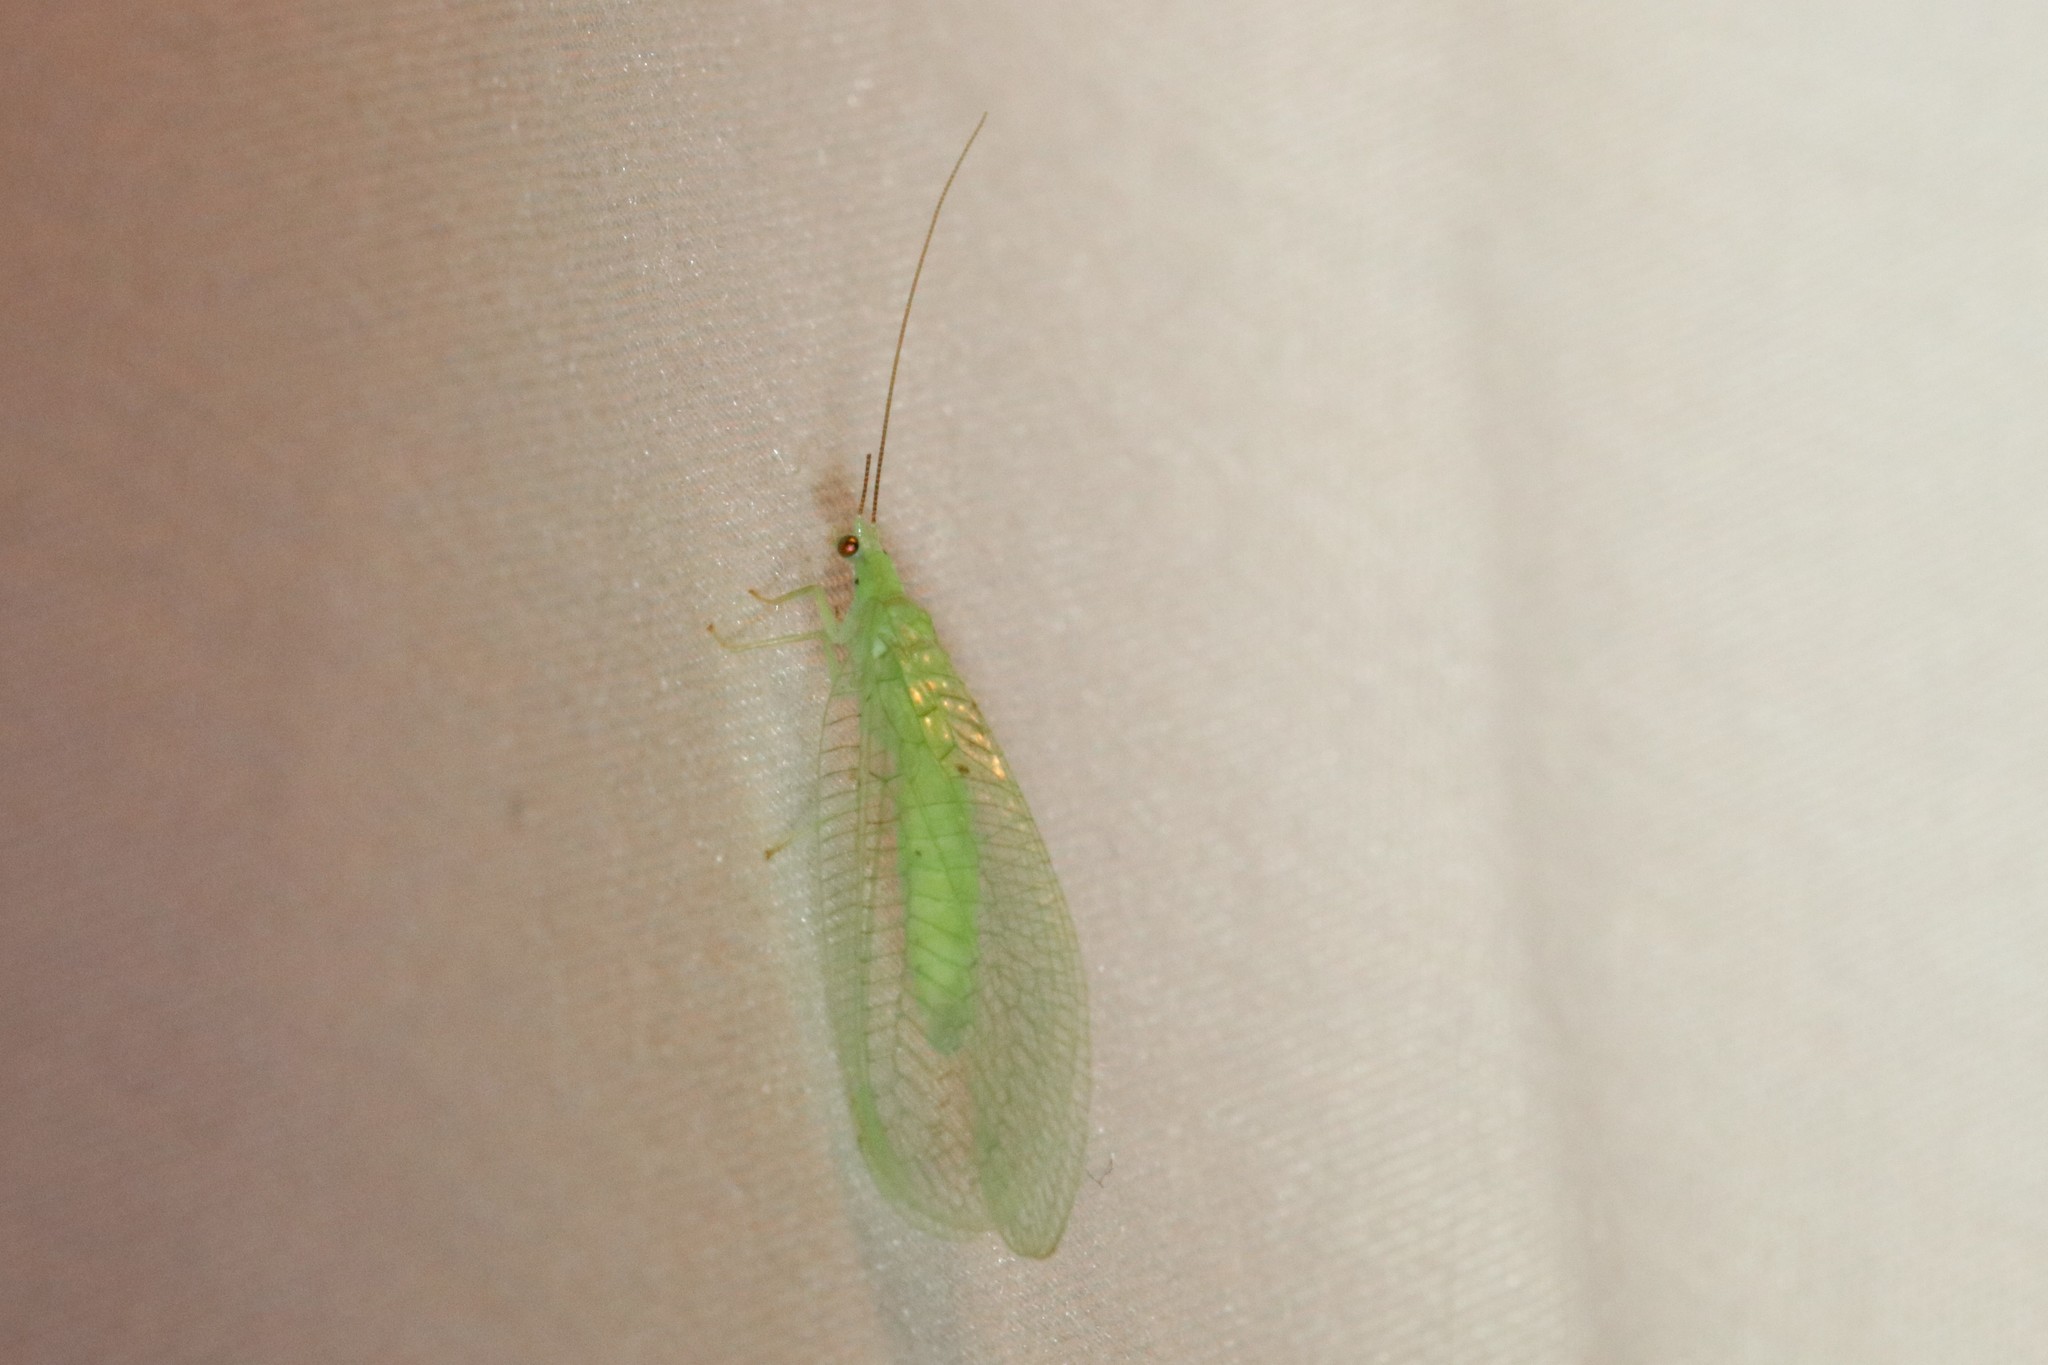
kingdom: Animalia
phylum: Arthropoda
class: Insecta
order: Neuroptera
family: Chrysopidae
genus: Chrysopa
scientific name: Chrysopa nigricornis
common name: Black-horned green lacewing
